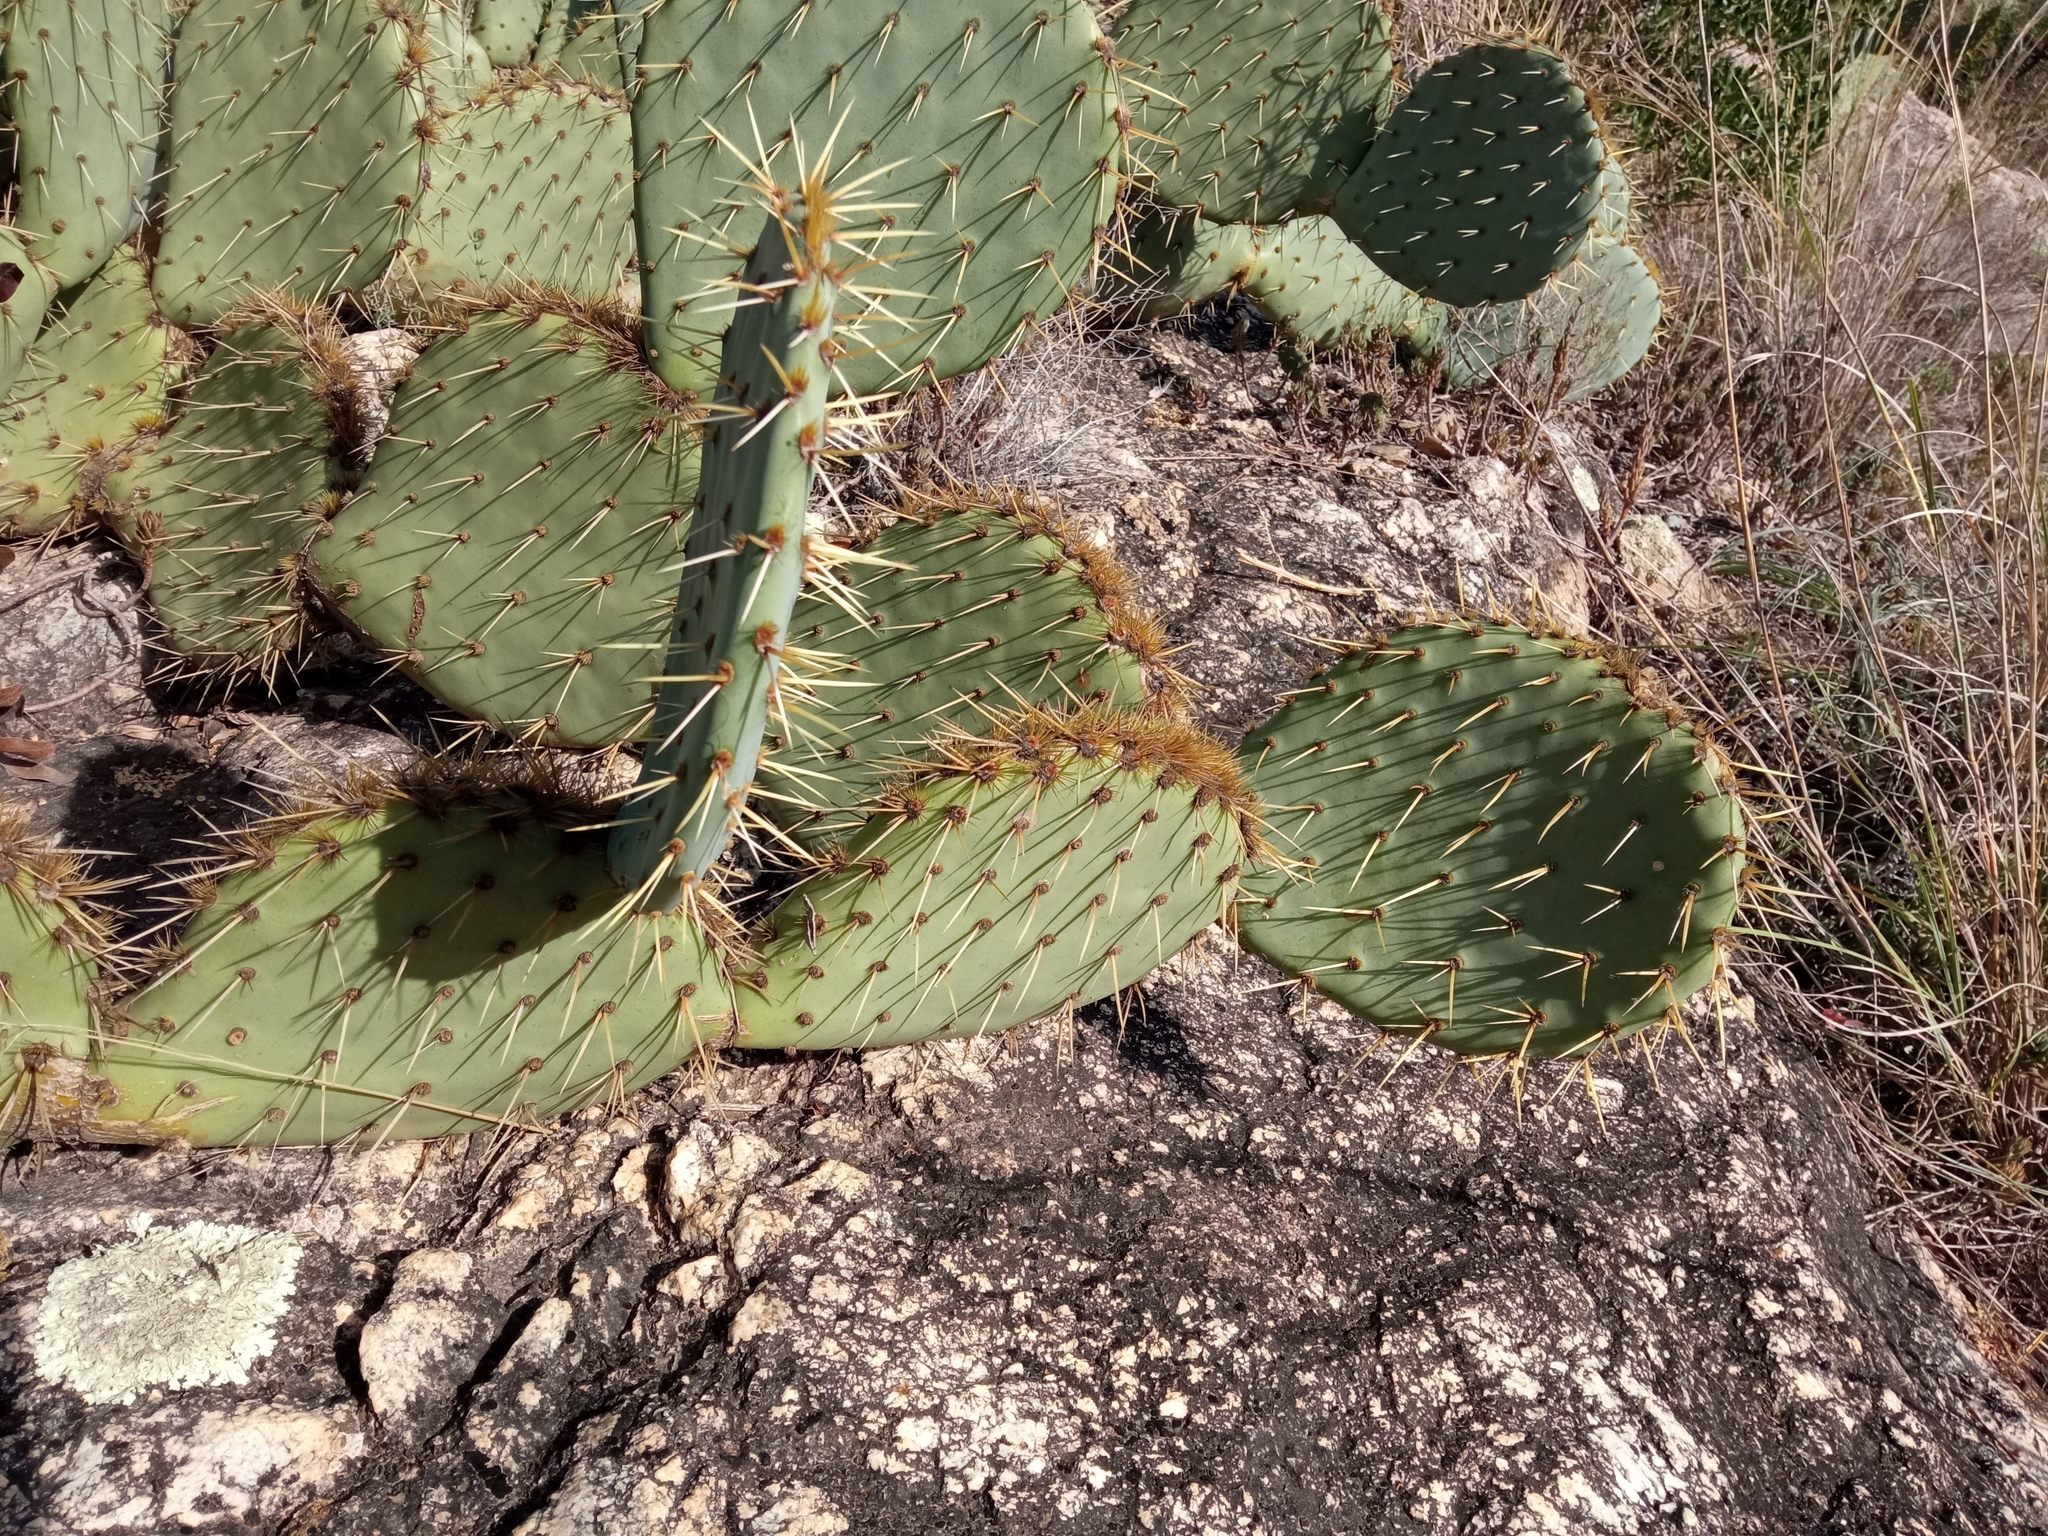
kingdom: Plantae
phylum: Tracheophyta
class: Magnoliopsida
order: Caryophyllales
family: Cactaceae
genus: Opuntia
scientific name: Opuntia orbiculata
